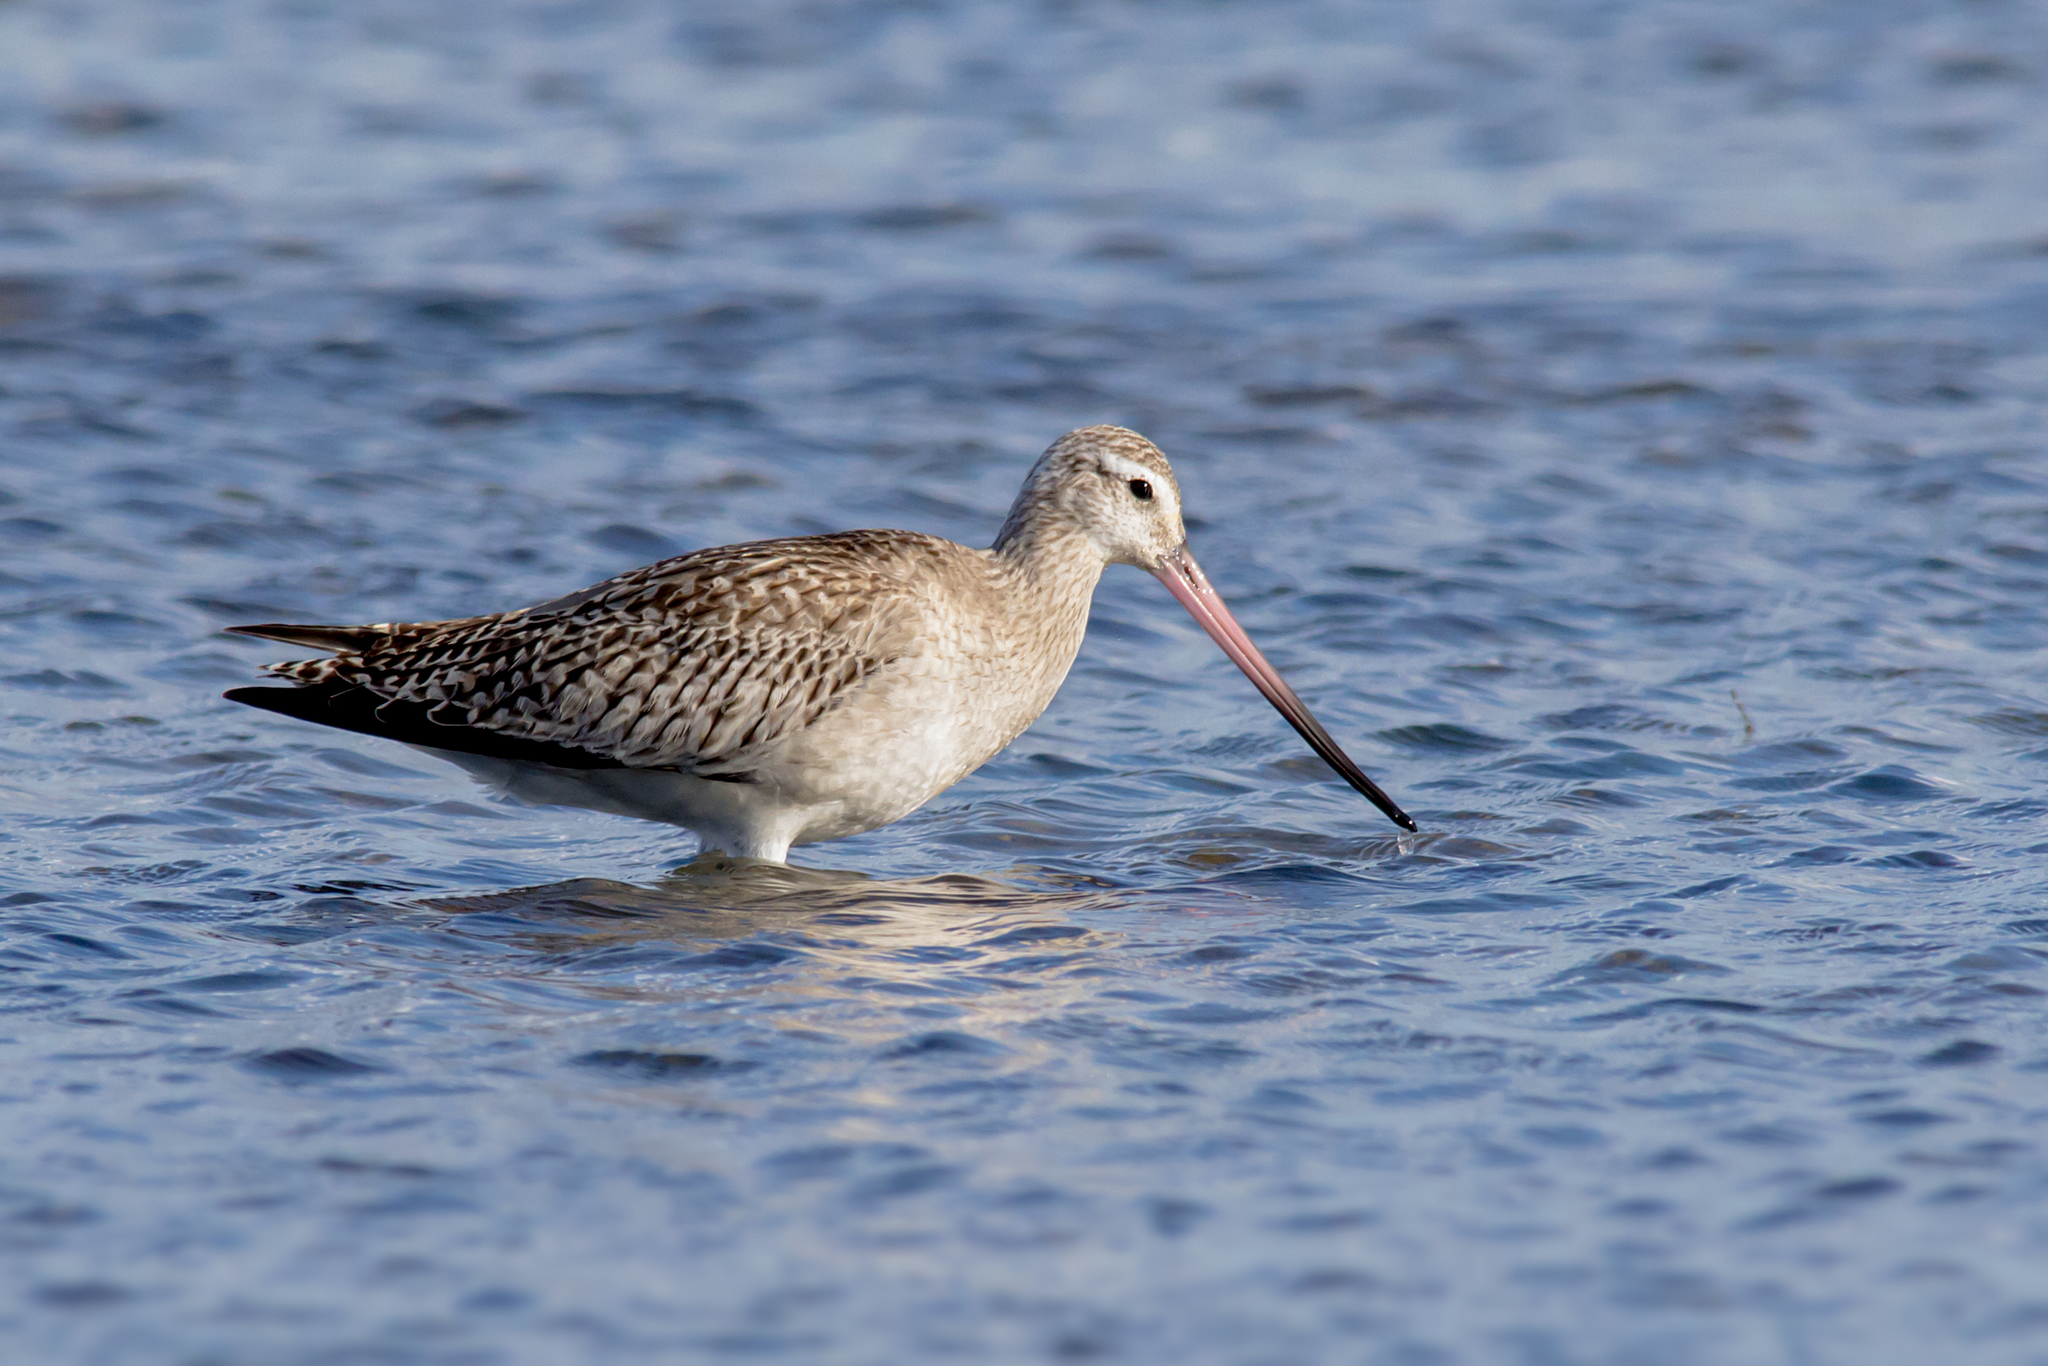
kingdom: Animalia
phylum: Chordata
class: Aves
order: Charadriiformes
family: Scolopacidae
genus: Limosa
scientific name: Limosa lapponica
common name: Bar-tailed godwit
